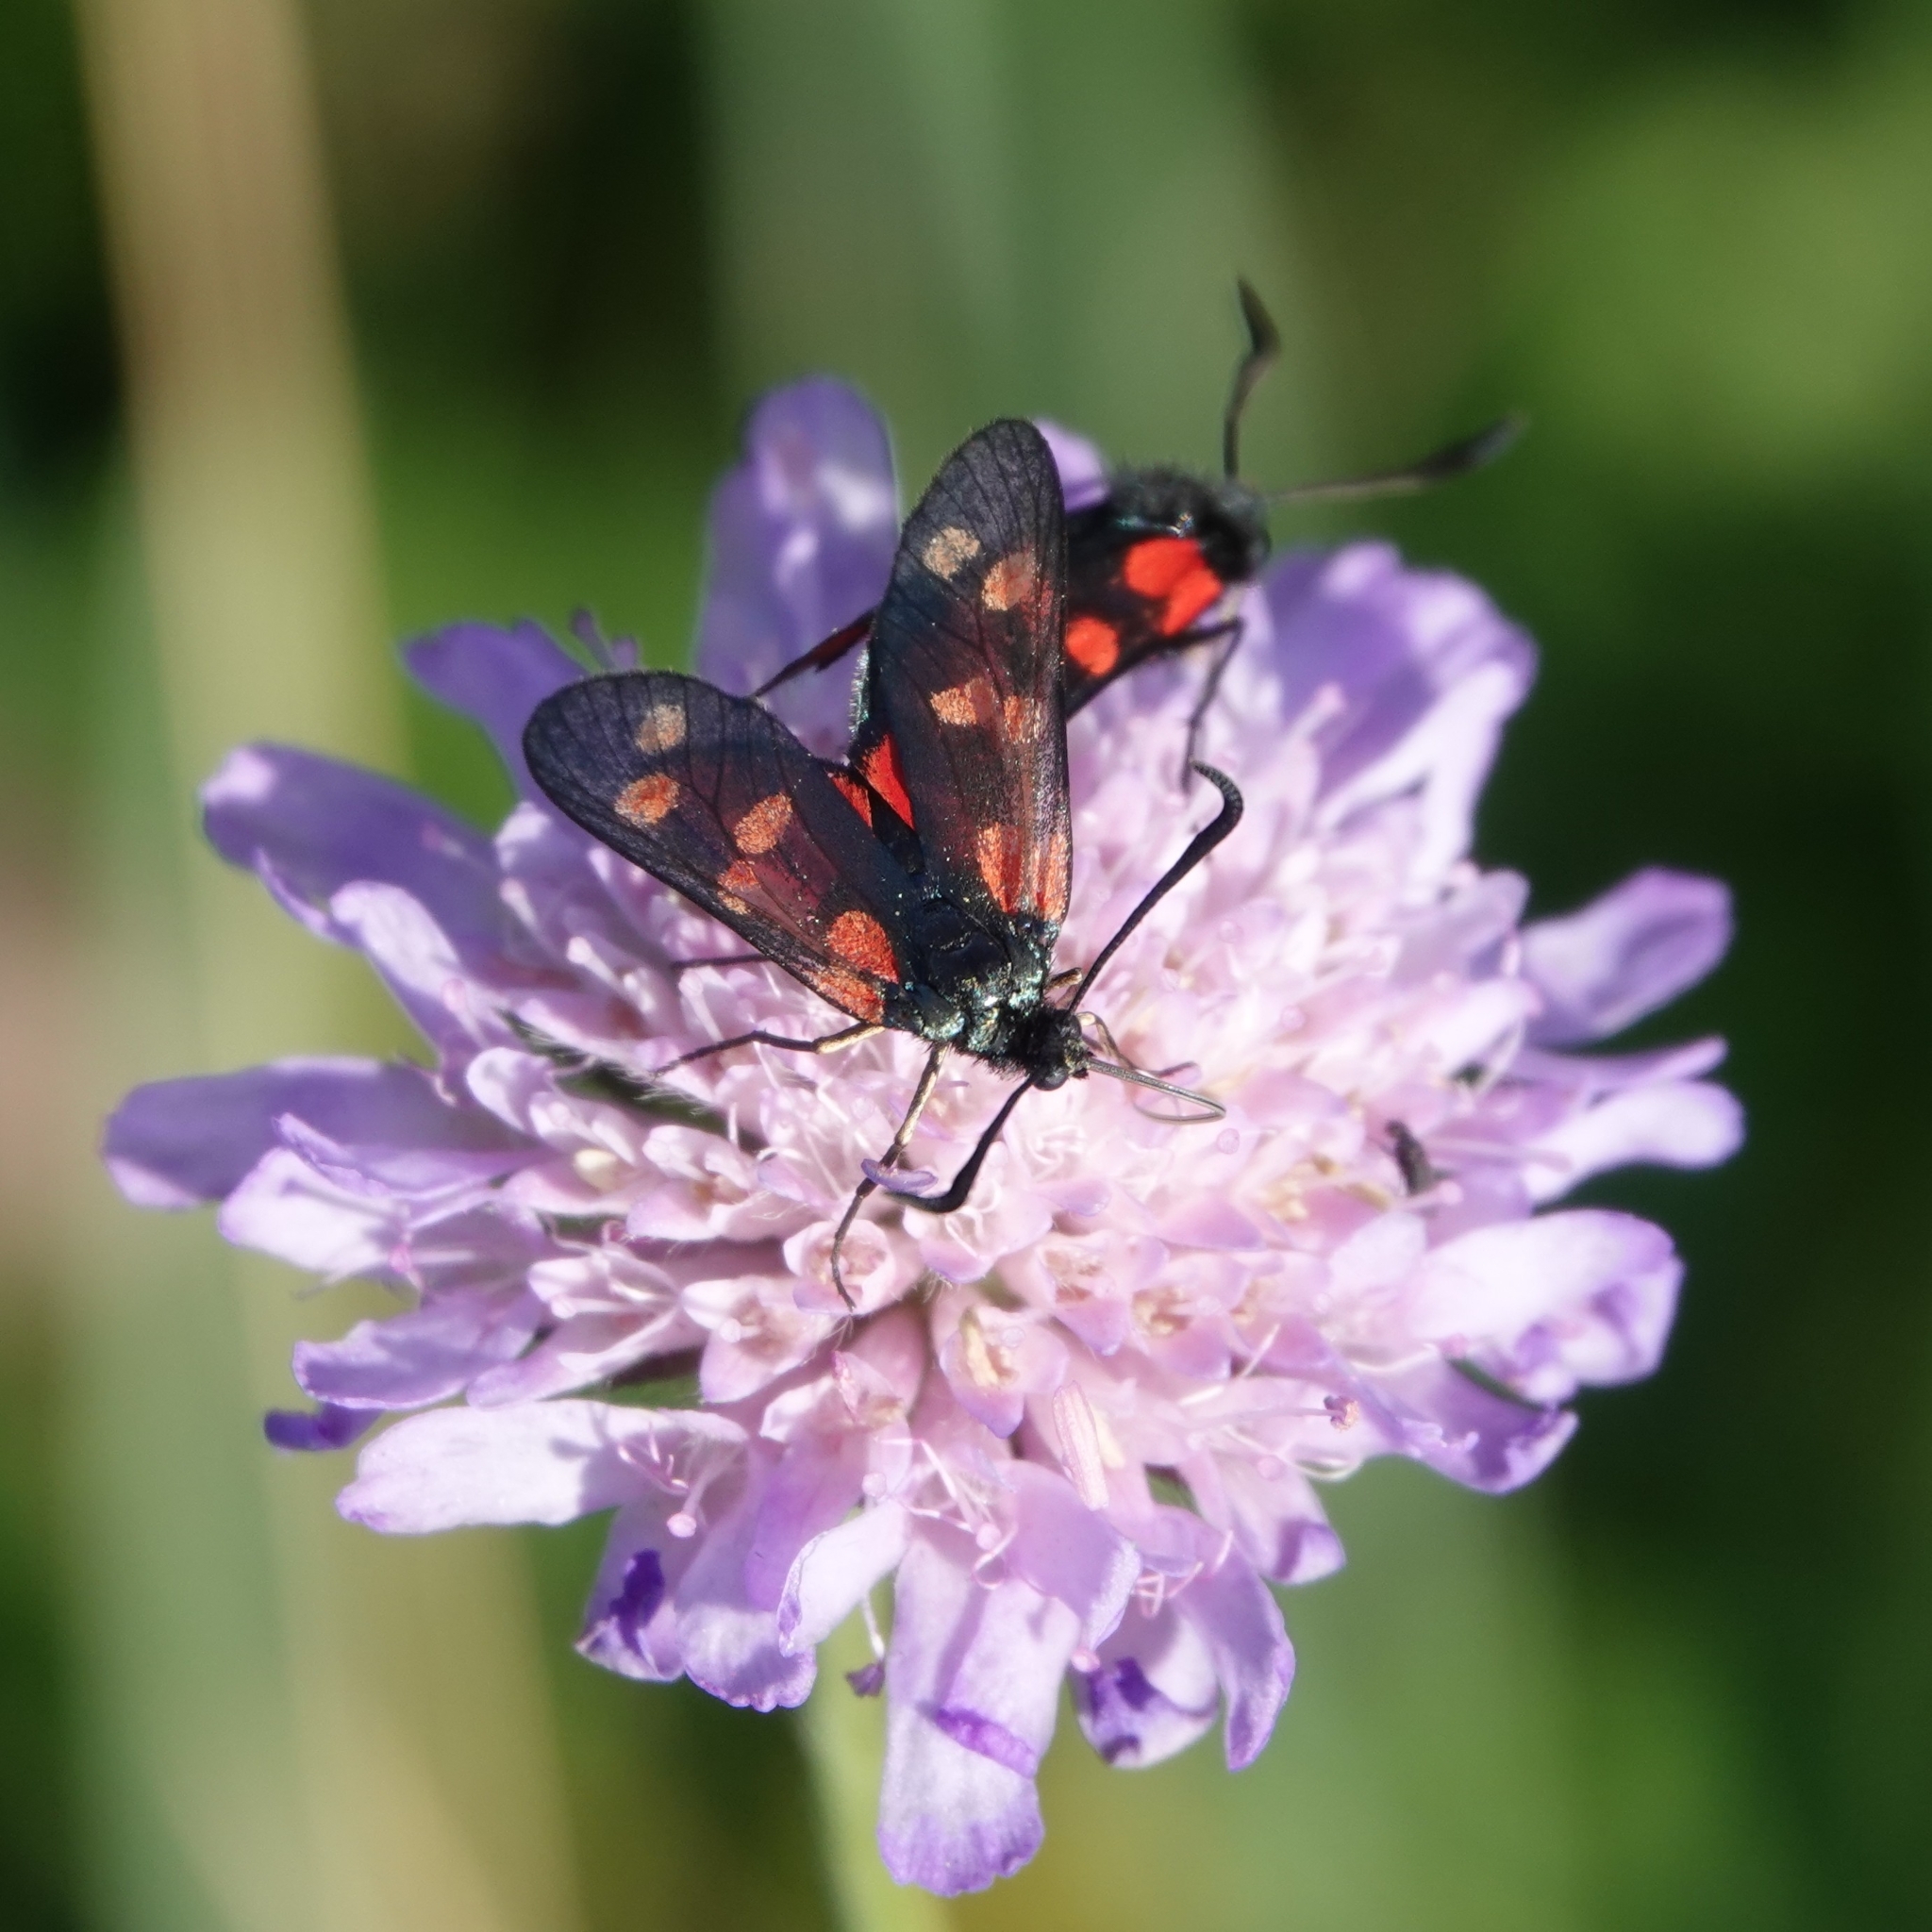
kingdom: Animalia
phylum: Arthropoda
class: Insecta
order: Lepidoptera
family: Zygaenidae
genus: Zygaena
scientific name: Zygaena filipendulae
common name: Six-spot burnet
